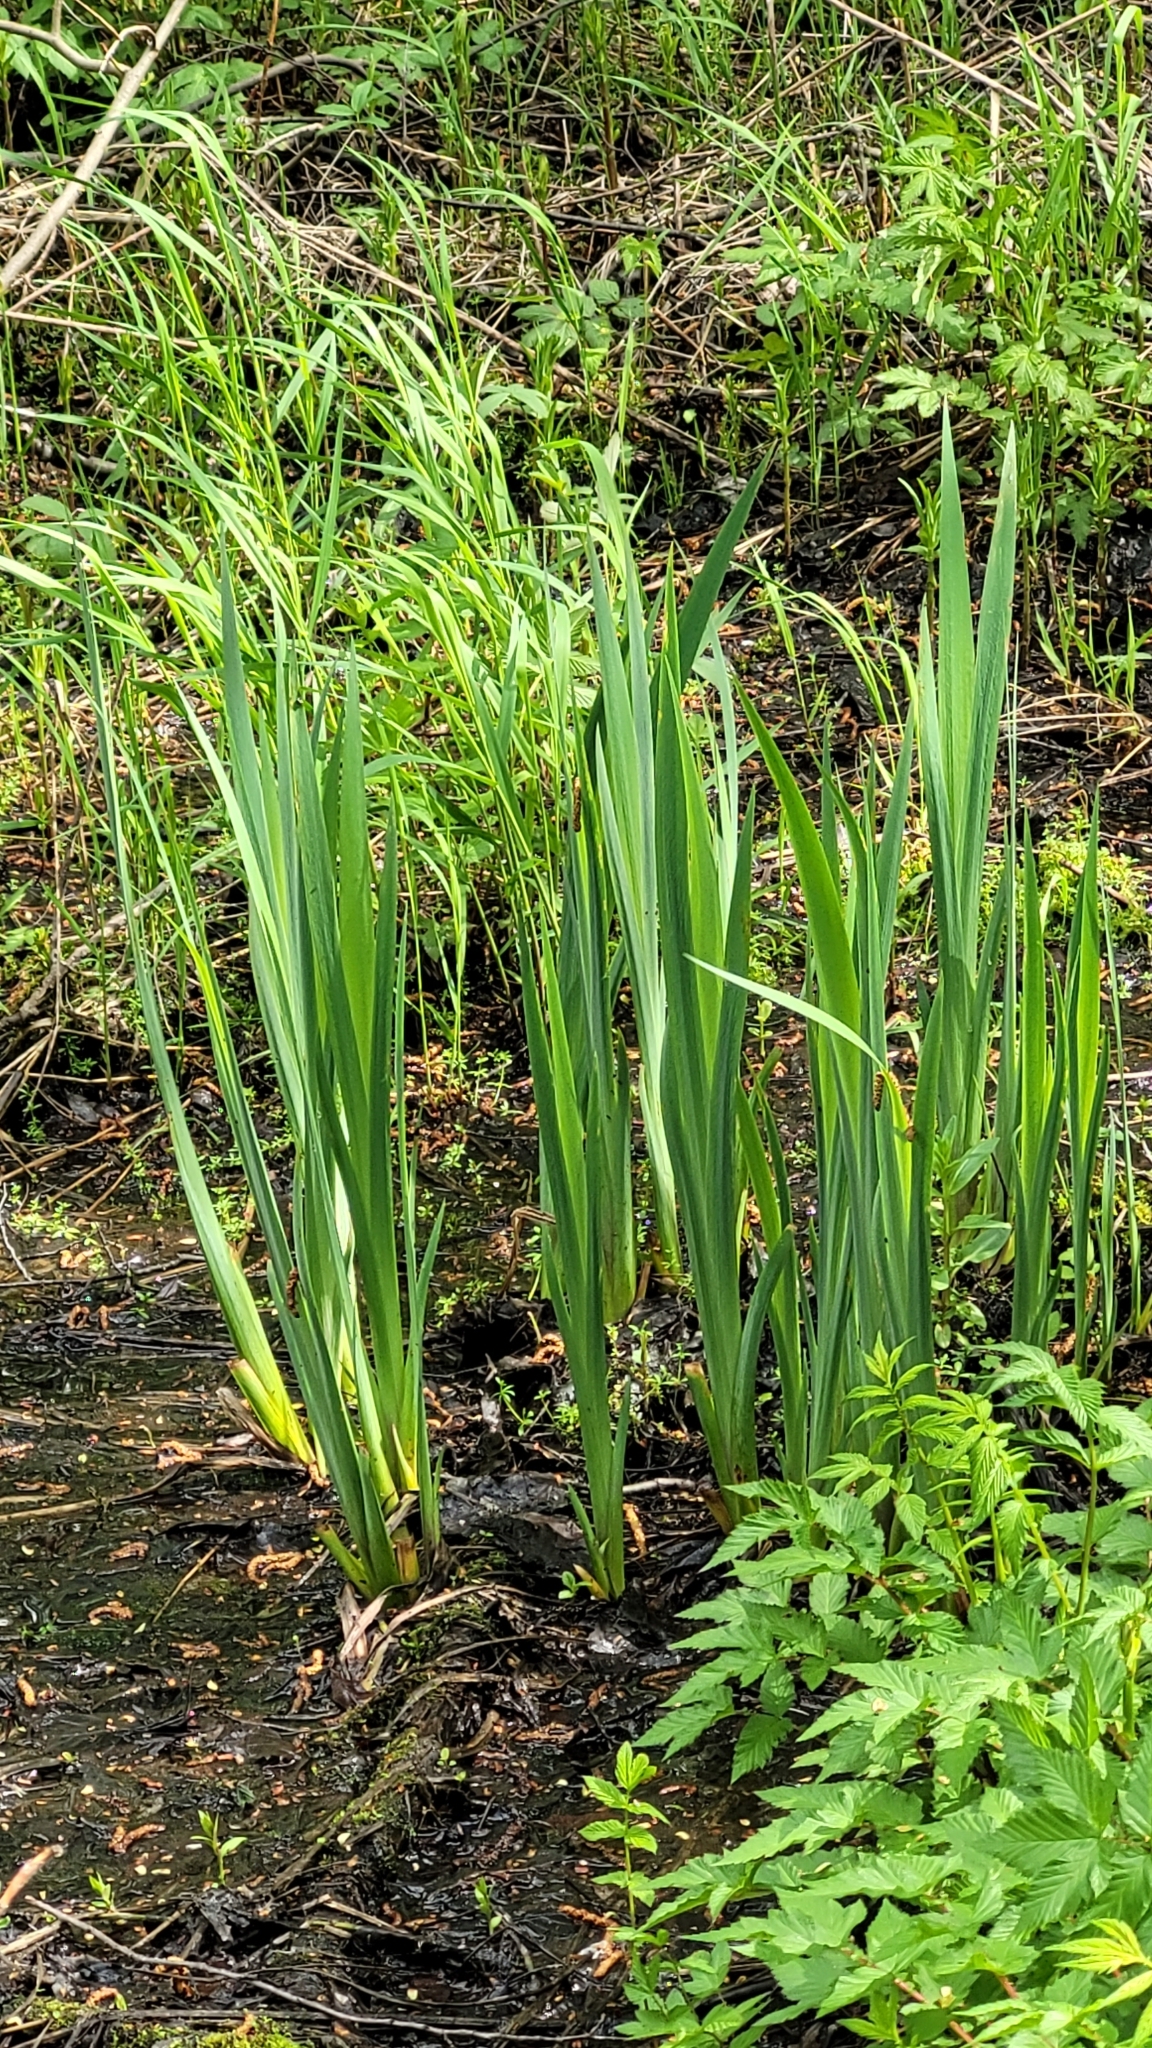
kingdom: Plantae
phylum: Tracheophyta
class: Liliopsida
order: Asparagales
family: Iridaceae
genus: Iris
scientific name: Iris pseudacorus
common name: Yellow flag
